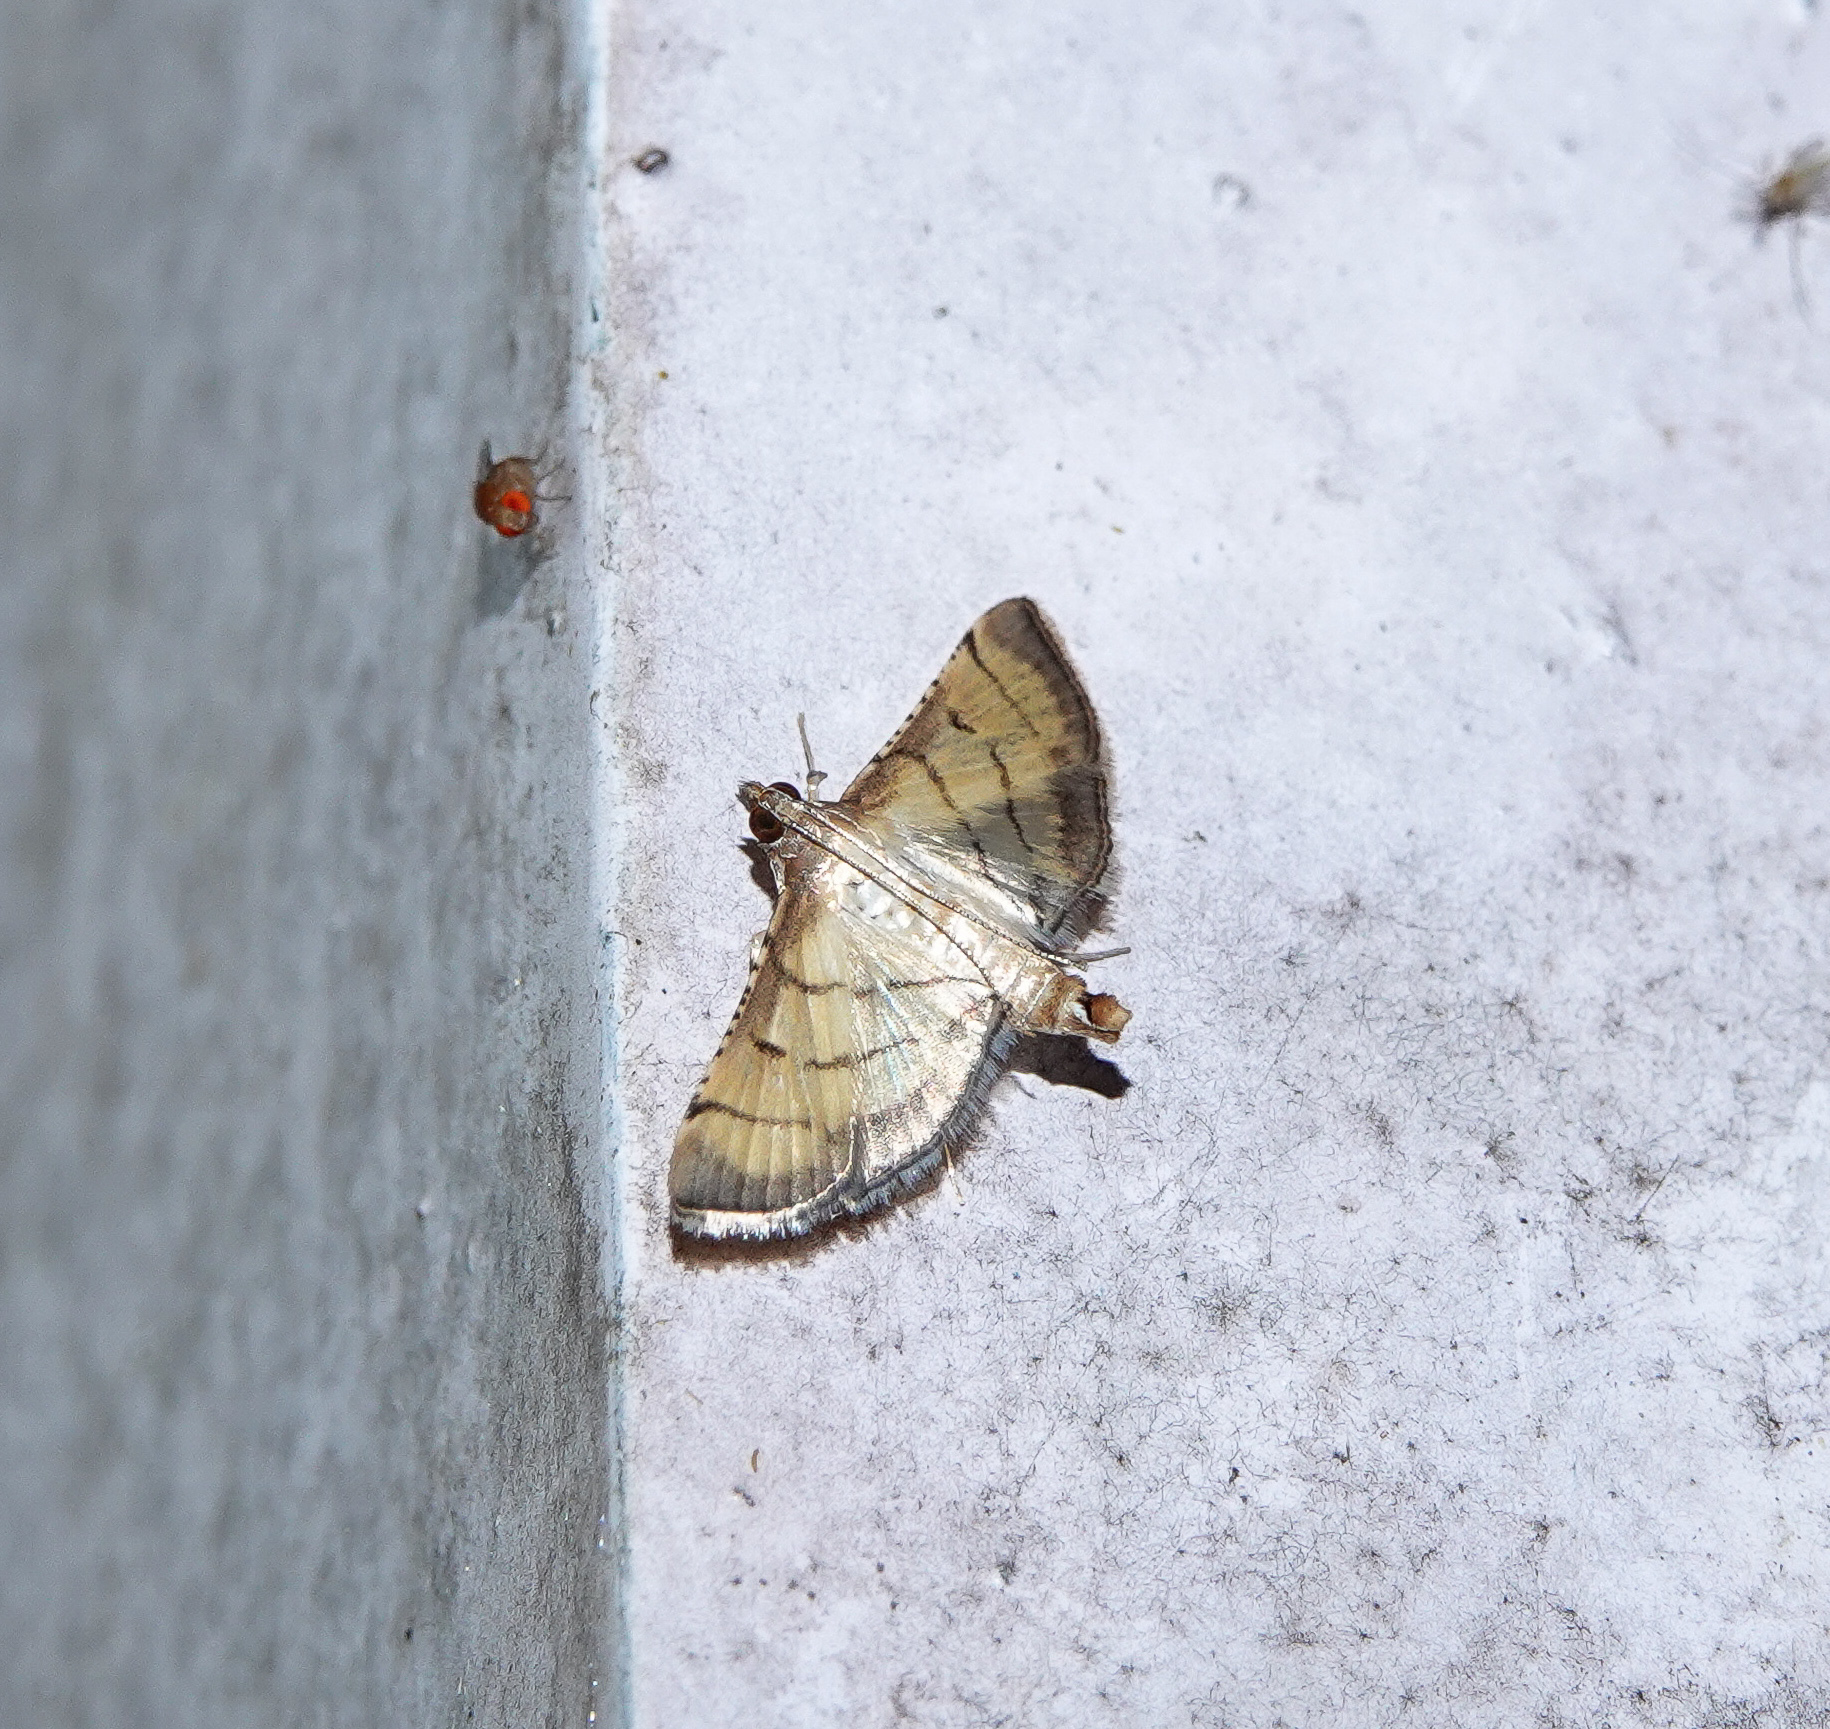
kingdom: Animalia
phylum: Arthropoda
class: Insecta
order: Lepidoptera
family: Crambidae
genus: Cnaphalocrocis
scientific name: Cnaphalocrocis poeyalis
